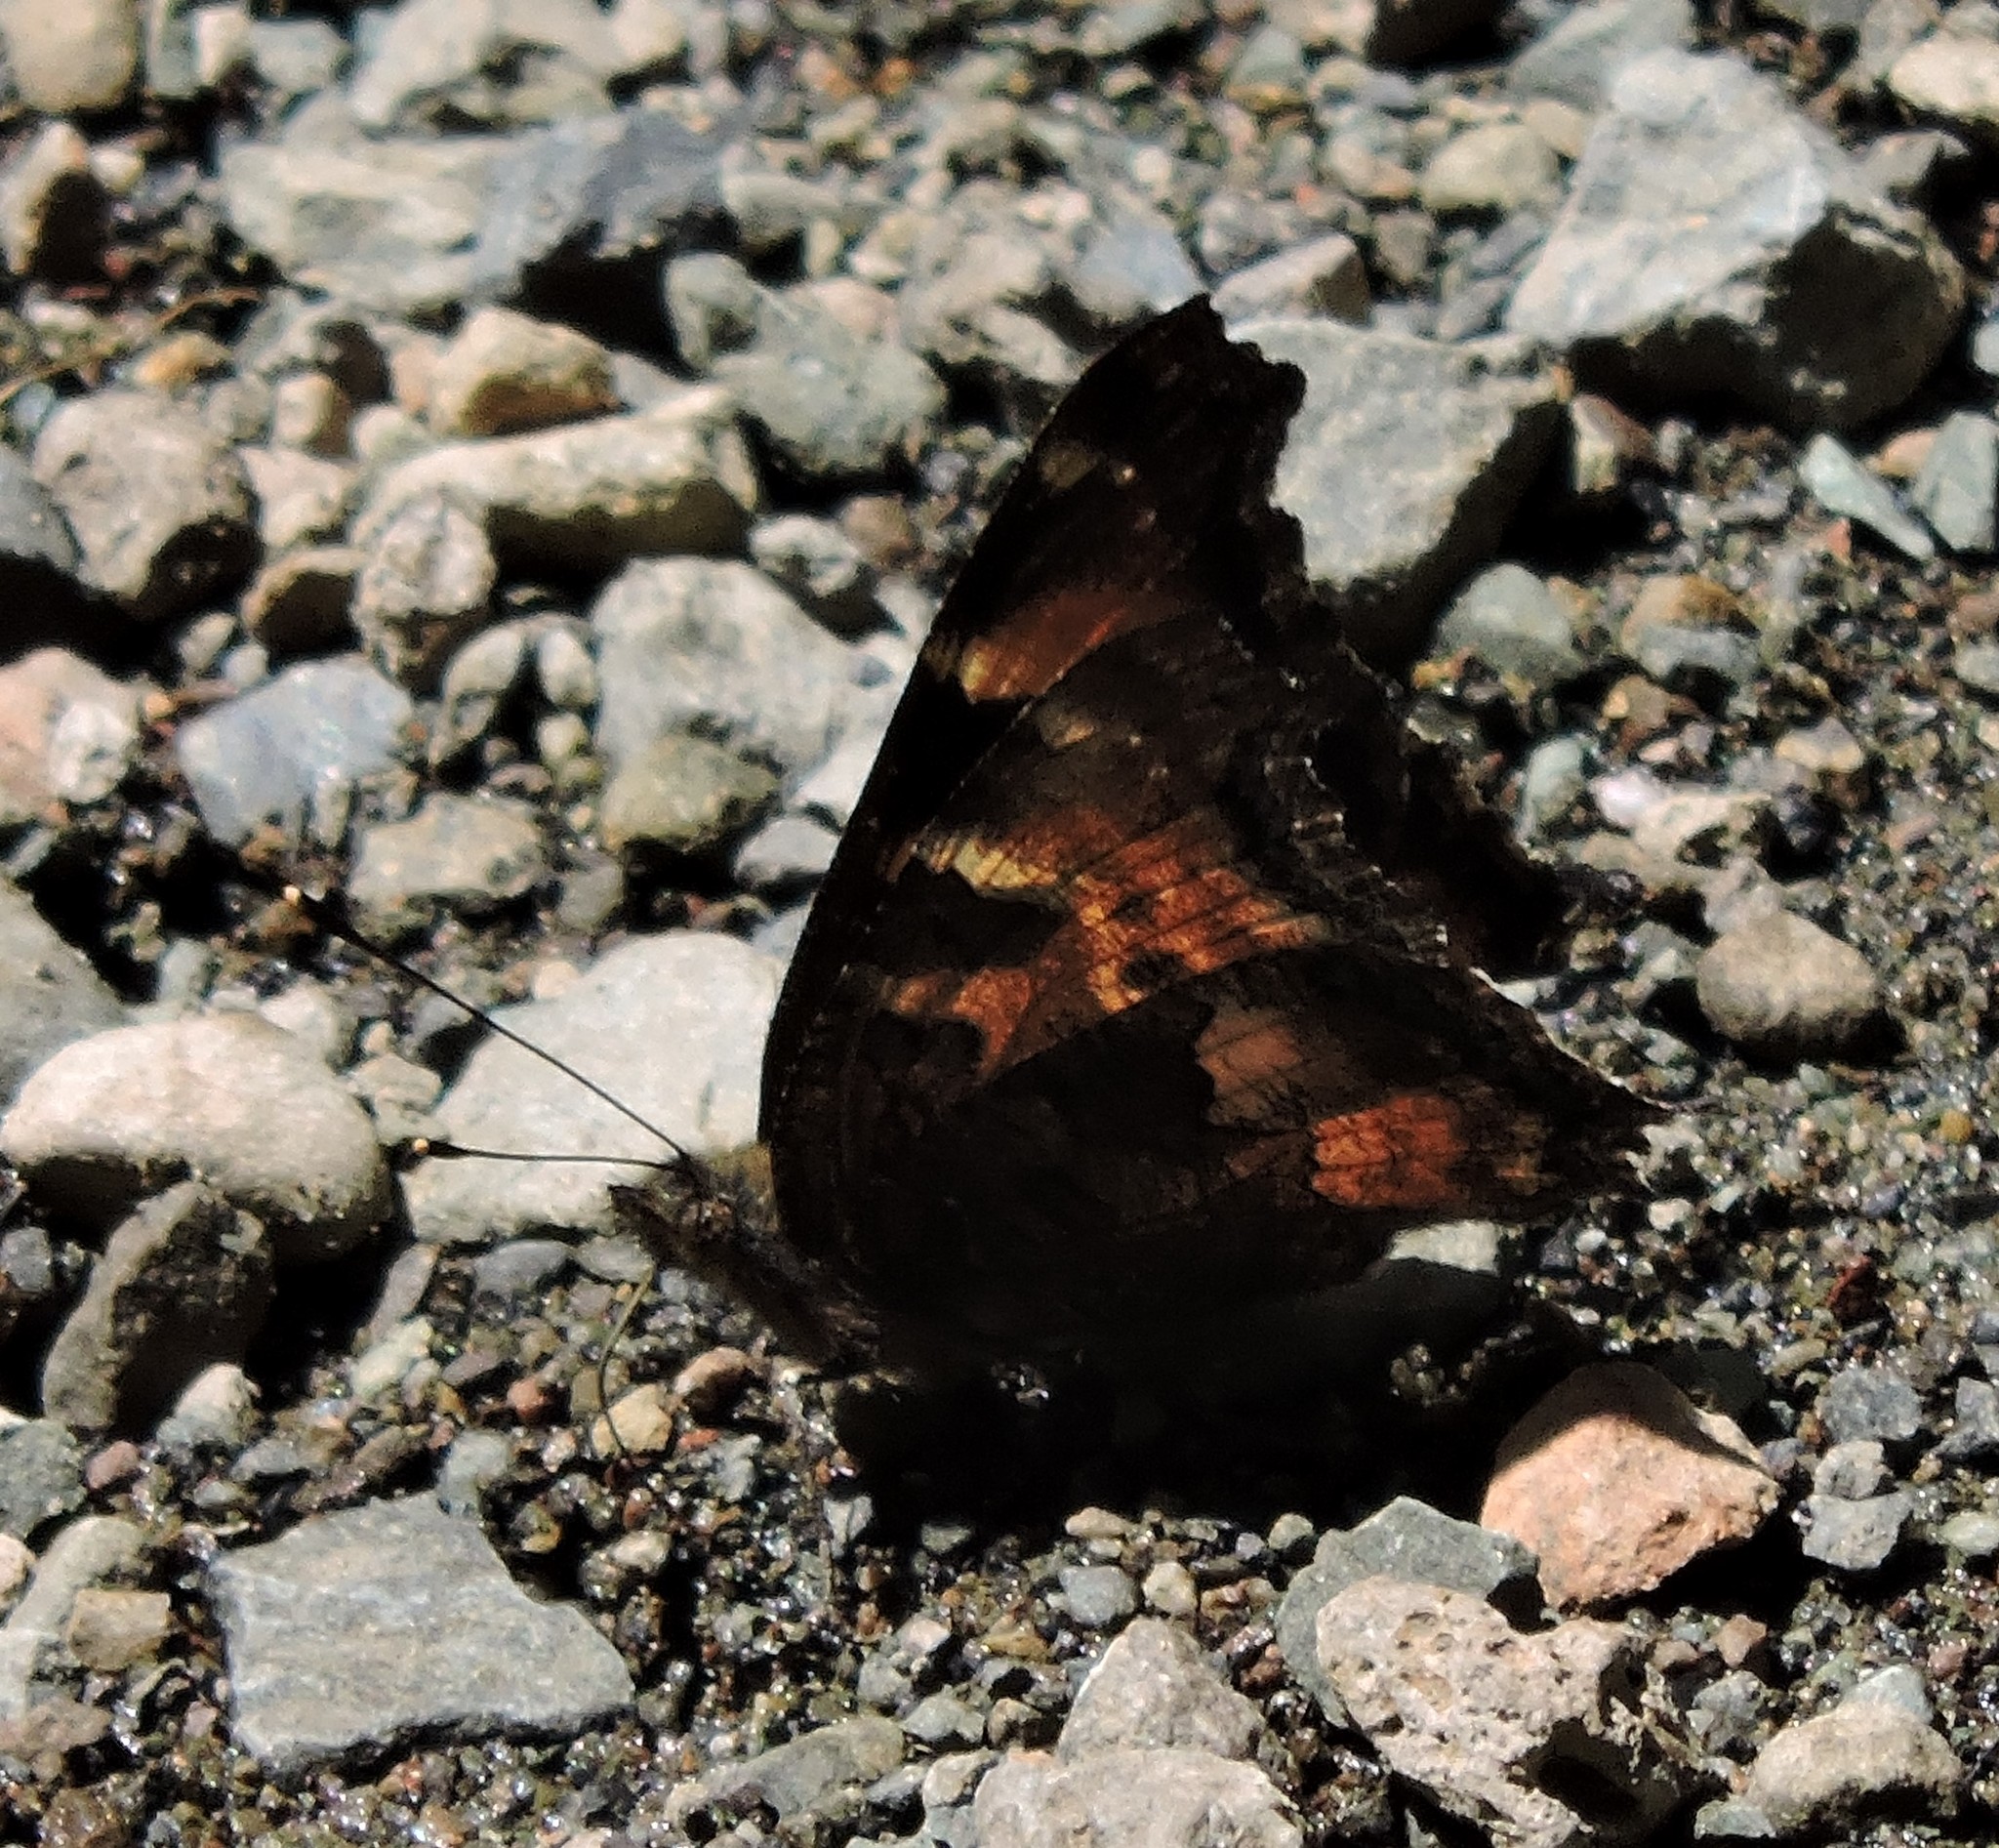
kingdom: Animalia
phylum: Arthropoda
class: Insecta
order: Lepidoptera
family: Nymphalidae
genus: Nymphalis
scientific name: Nymphalis californica
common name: California tortoiseshell
